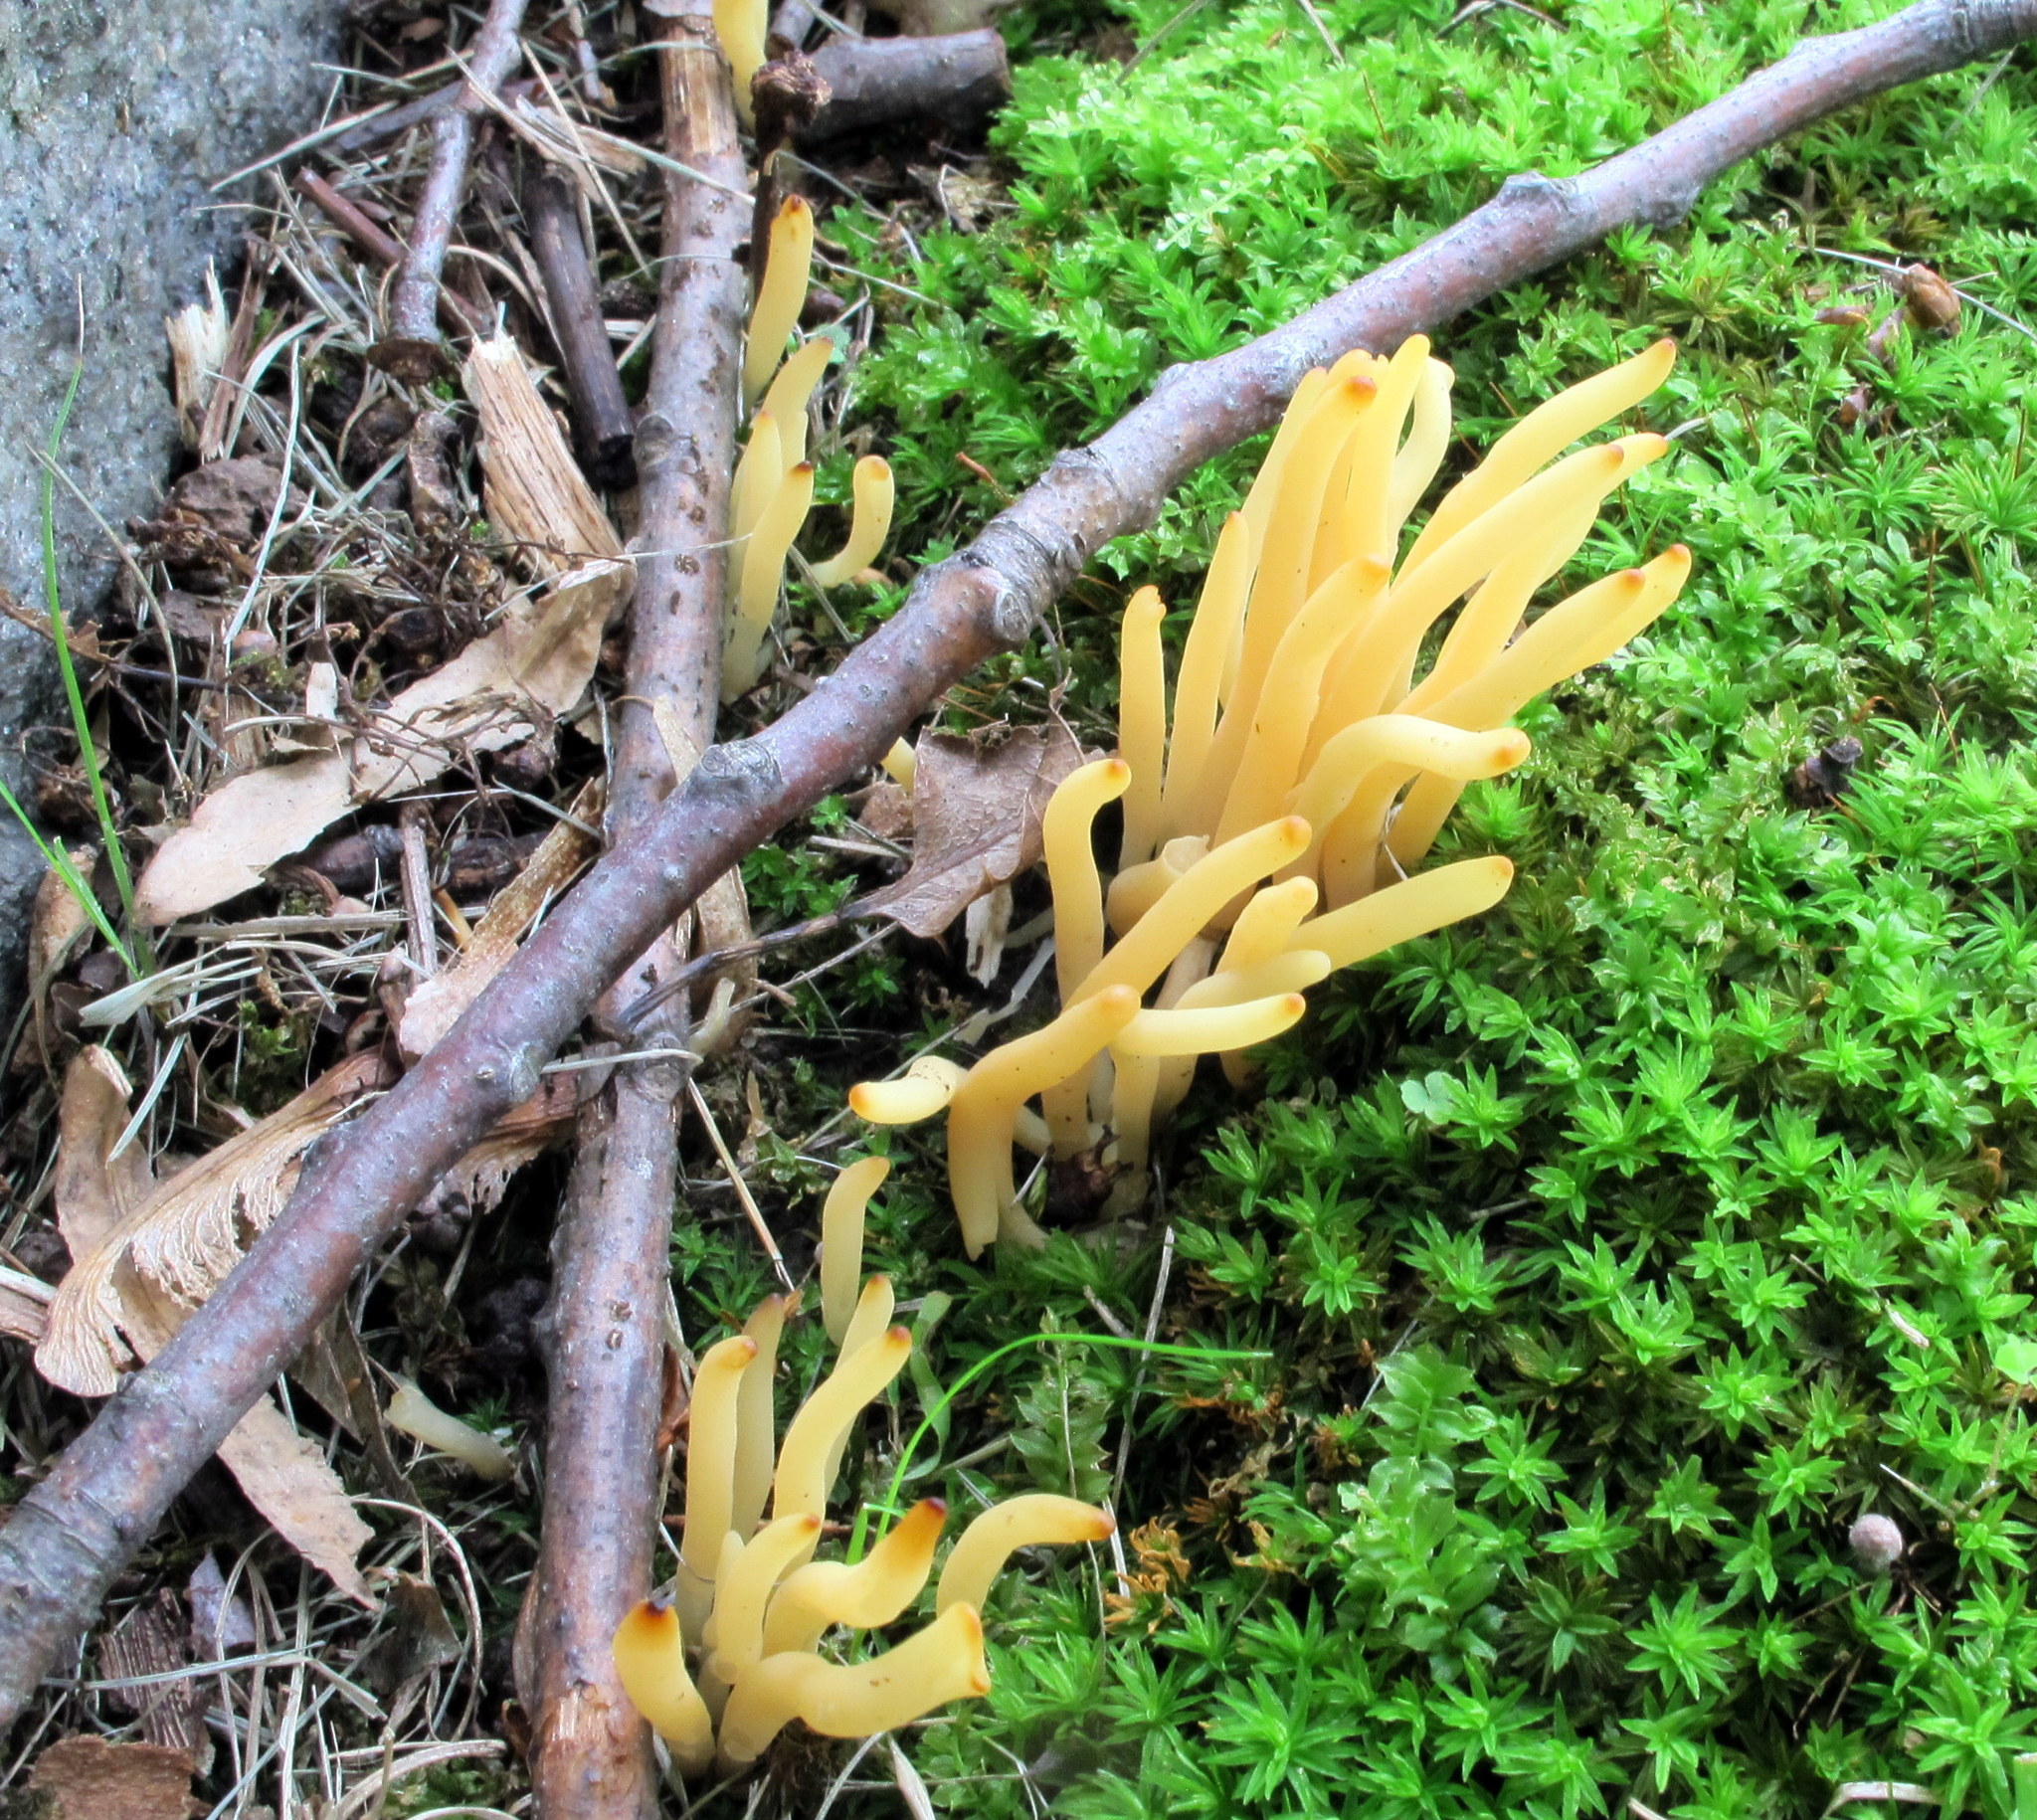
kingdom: Fungi
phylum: Basidiomycota
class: Agaricomycetes
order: Agaricales
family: Clavariaceae
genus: Clavulinopsis
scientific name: Clavulinopsis fusiformis
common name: Golden spindles
